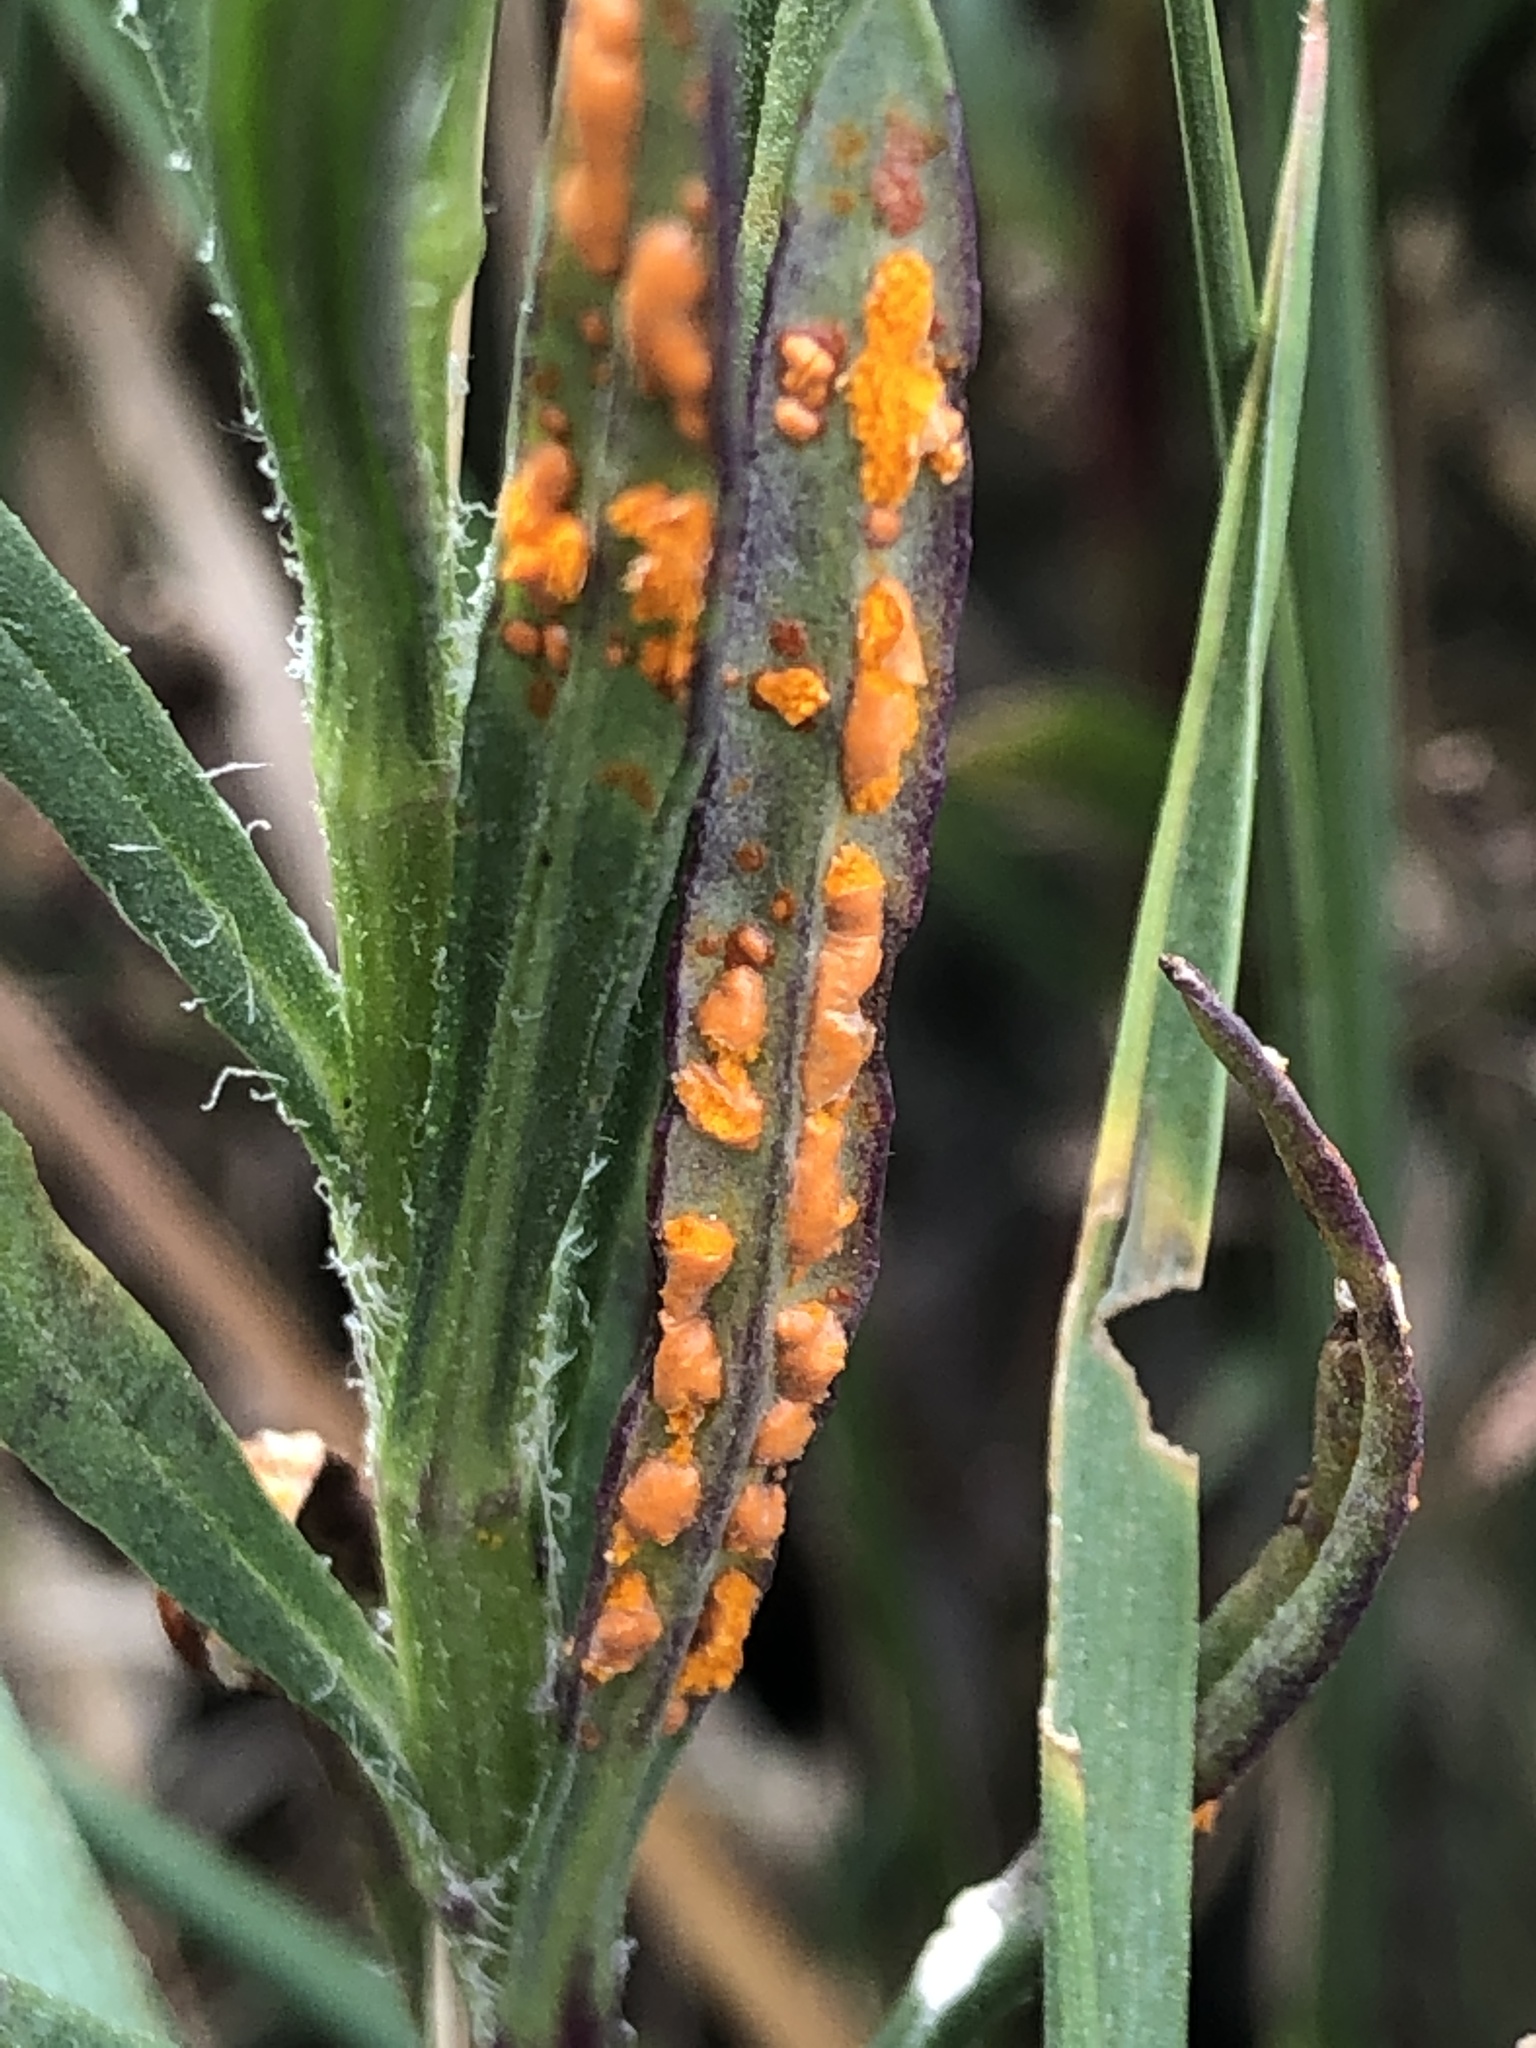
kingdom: Fungi
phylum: Basidiomycota
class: Pucciniomycetes
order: Pucciniales
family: Coleosporiaceae
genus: Coleosporium
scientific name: Coleosporium senecionis
